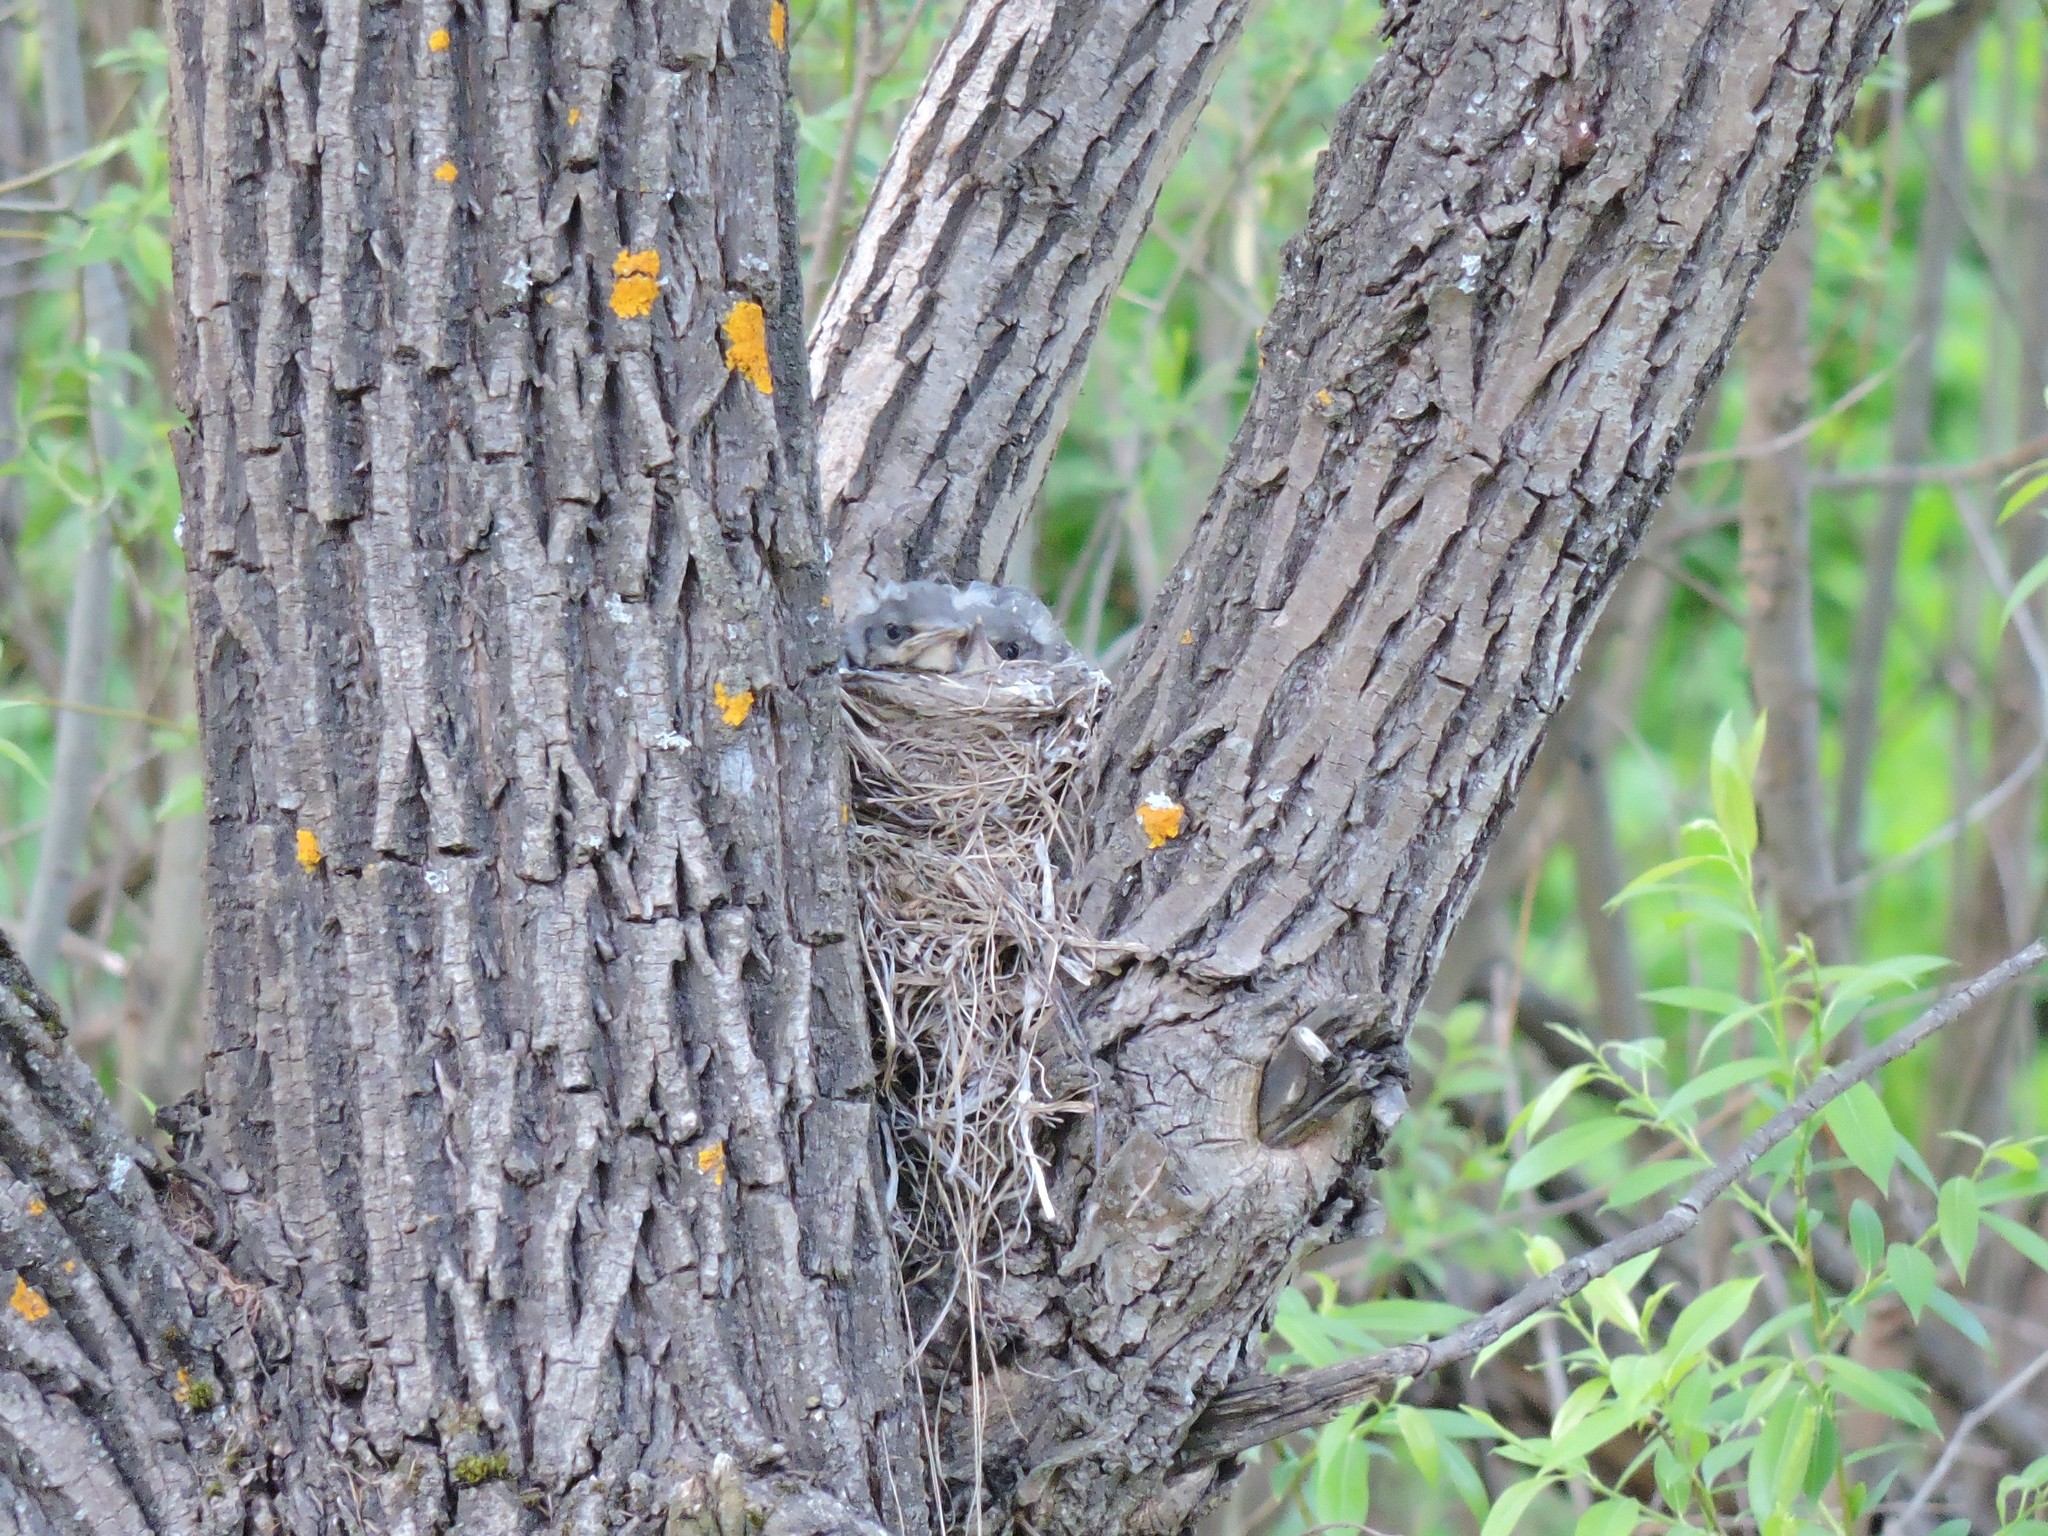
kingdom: Animalia
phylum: Chordata
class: Aves
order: Passeriformes
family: Turdidae
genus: Turdus
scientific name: Turdus pilaris
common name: Fieldfare
